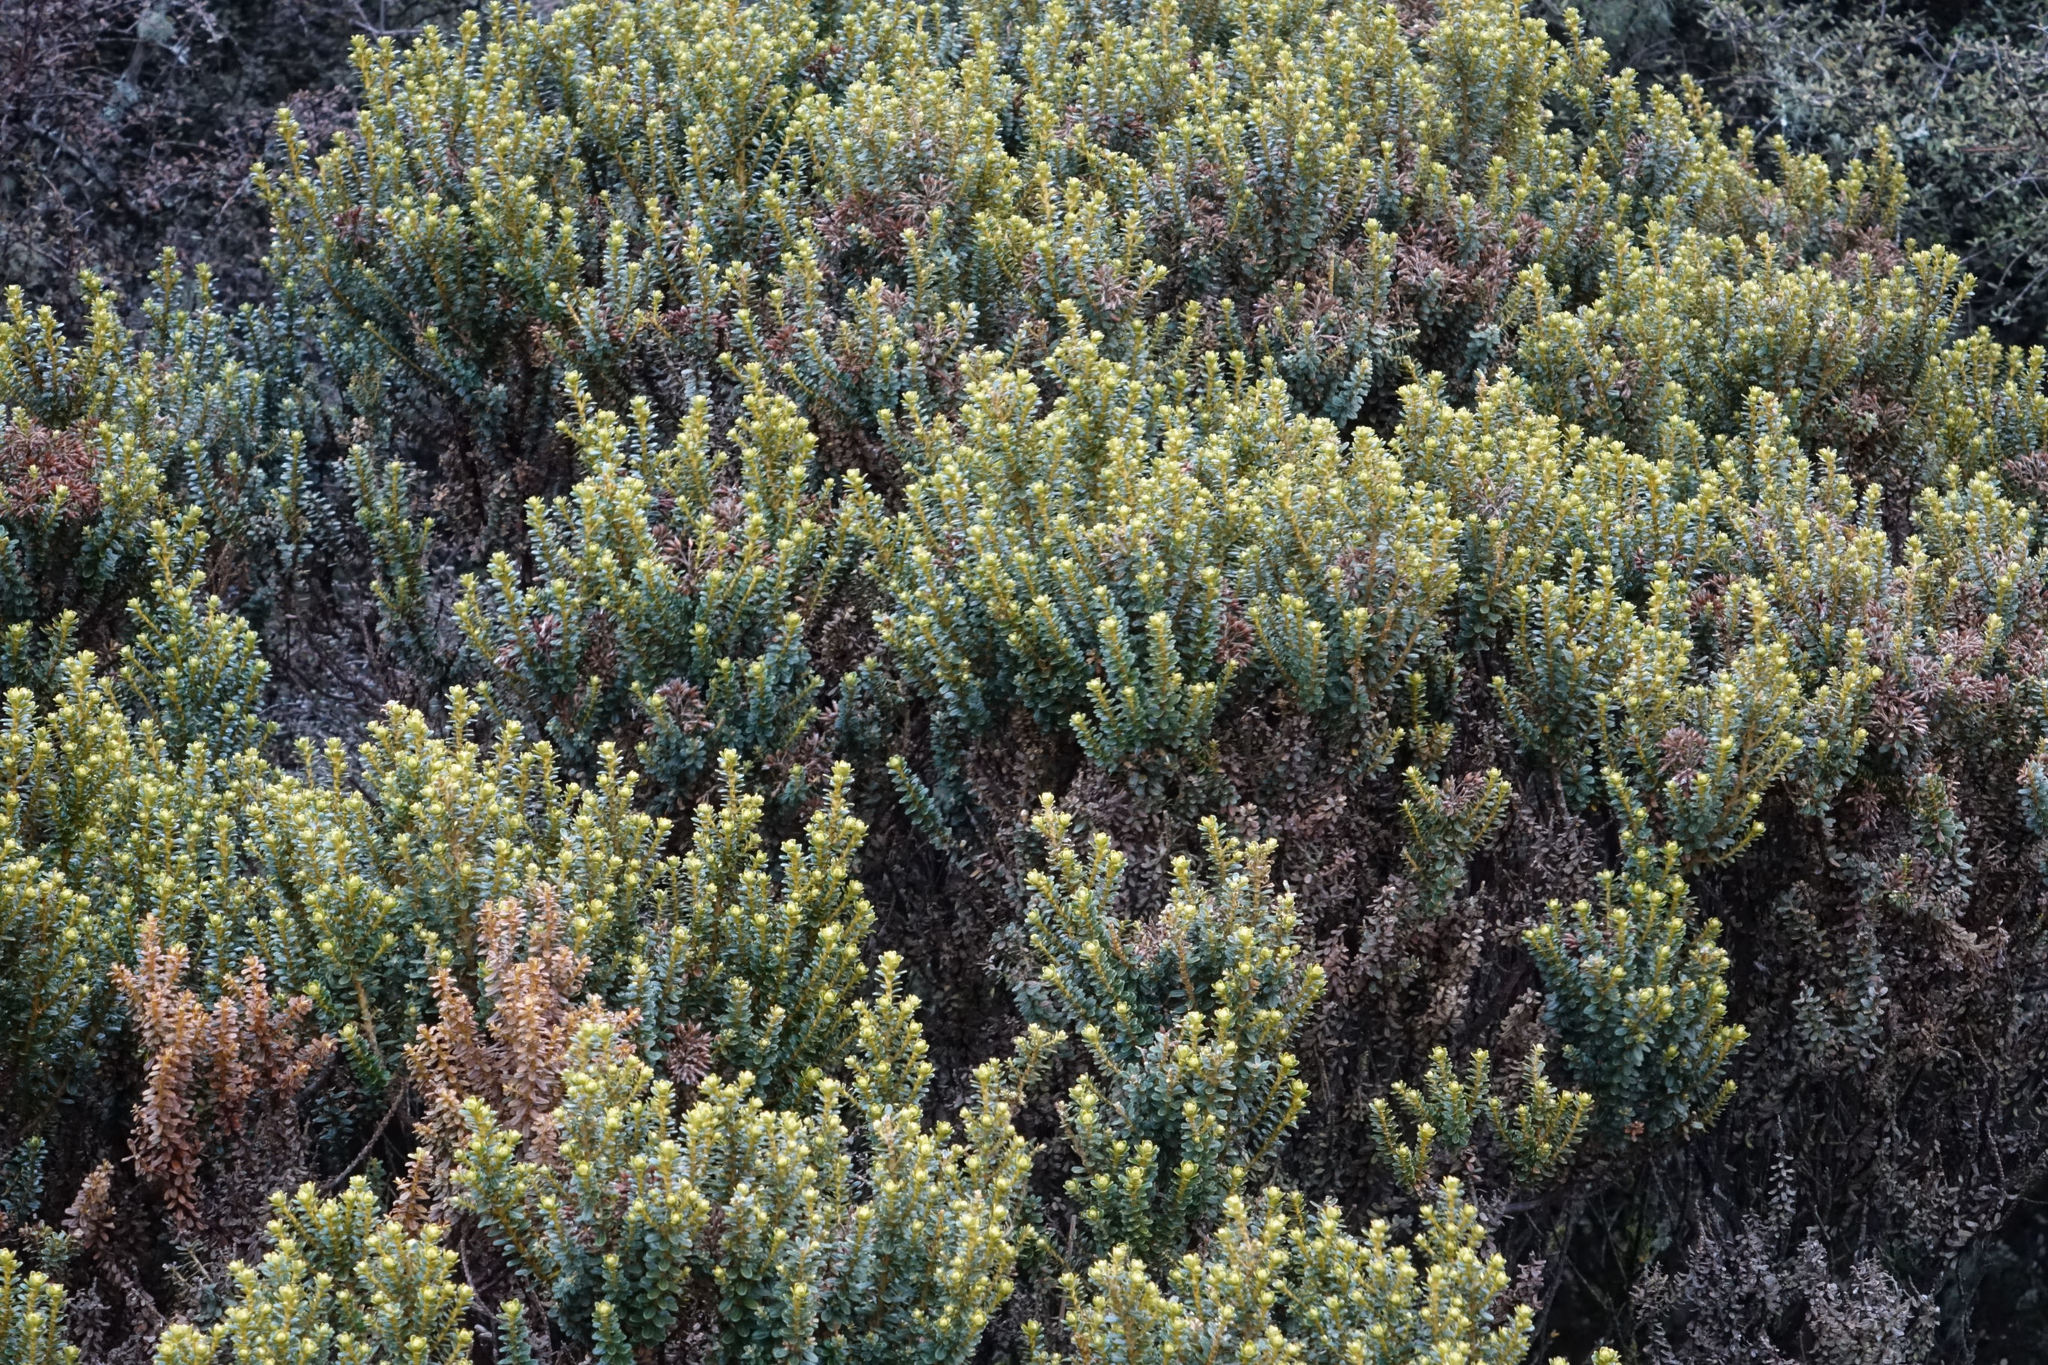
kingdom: Plantae
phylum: Tracheophyta
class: Magnoliopsida
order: Asterales
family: Asteraceae
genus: Ozothamnus
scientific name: Ozothamnus leptophyllus
